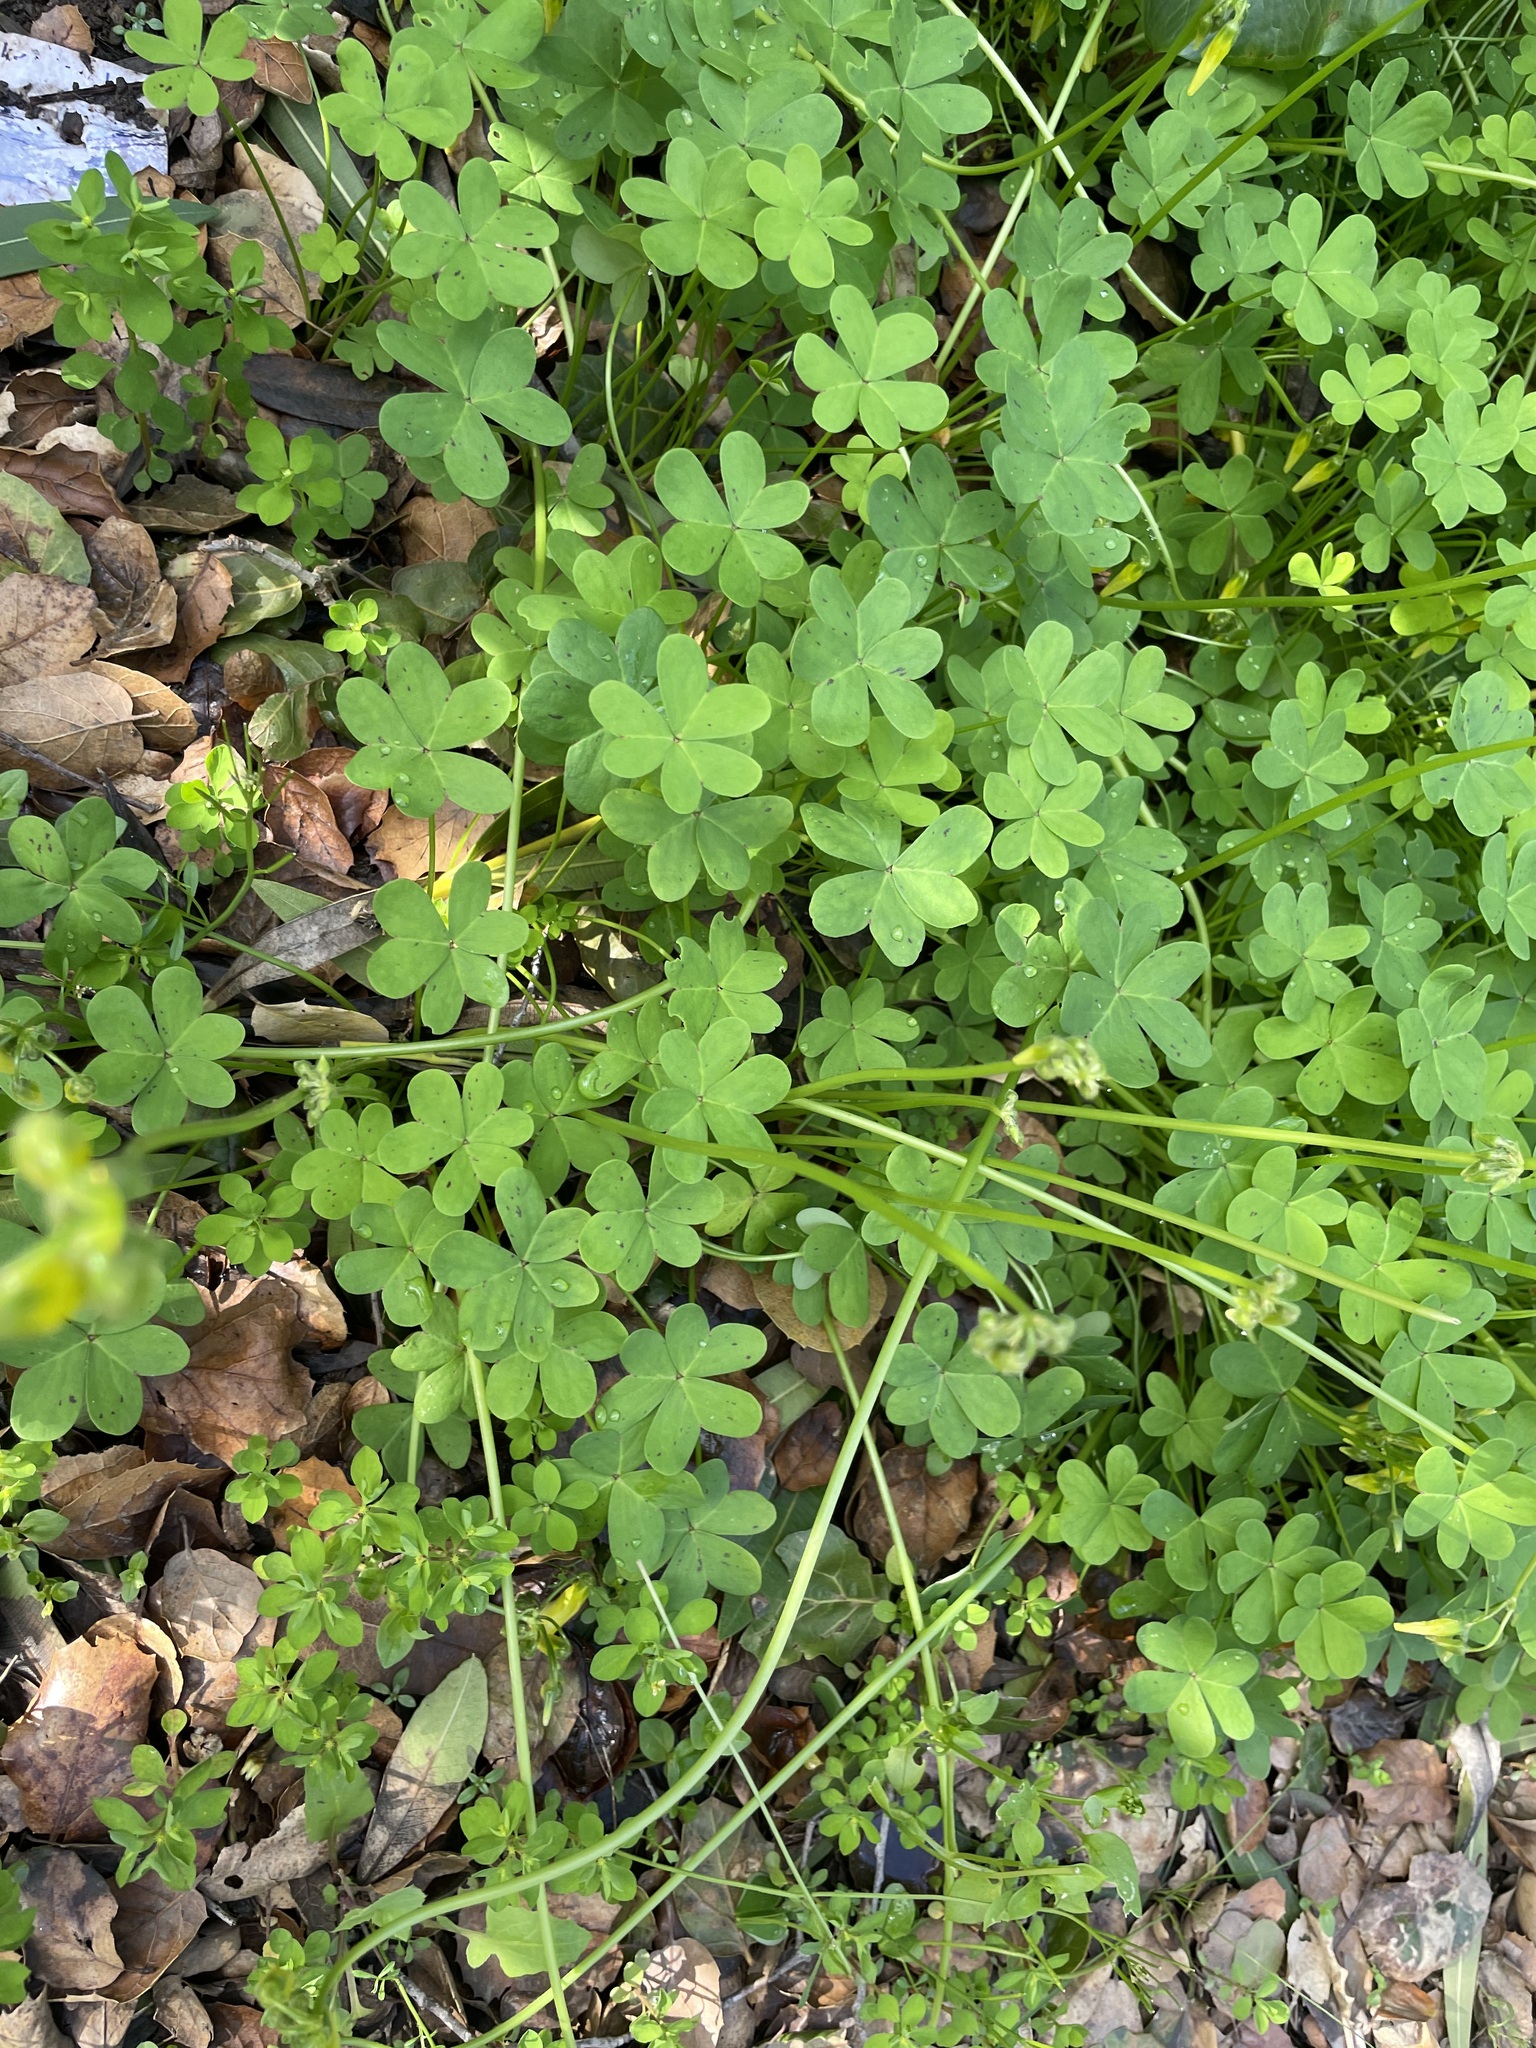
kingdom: Plantae
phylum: Tracheophyta
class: Magnoliopsida
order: Oxalidales
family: Oxalidaceae
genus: Oxalis
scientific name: Oxalis pes-caprae
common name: Bermuda-buttercup
